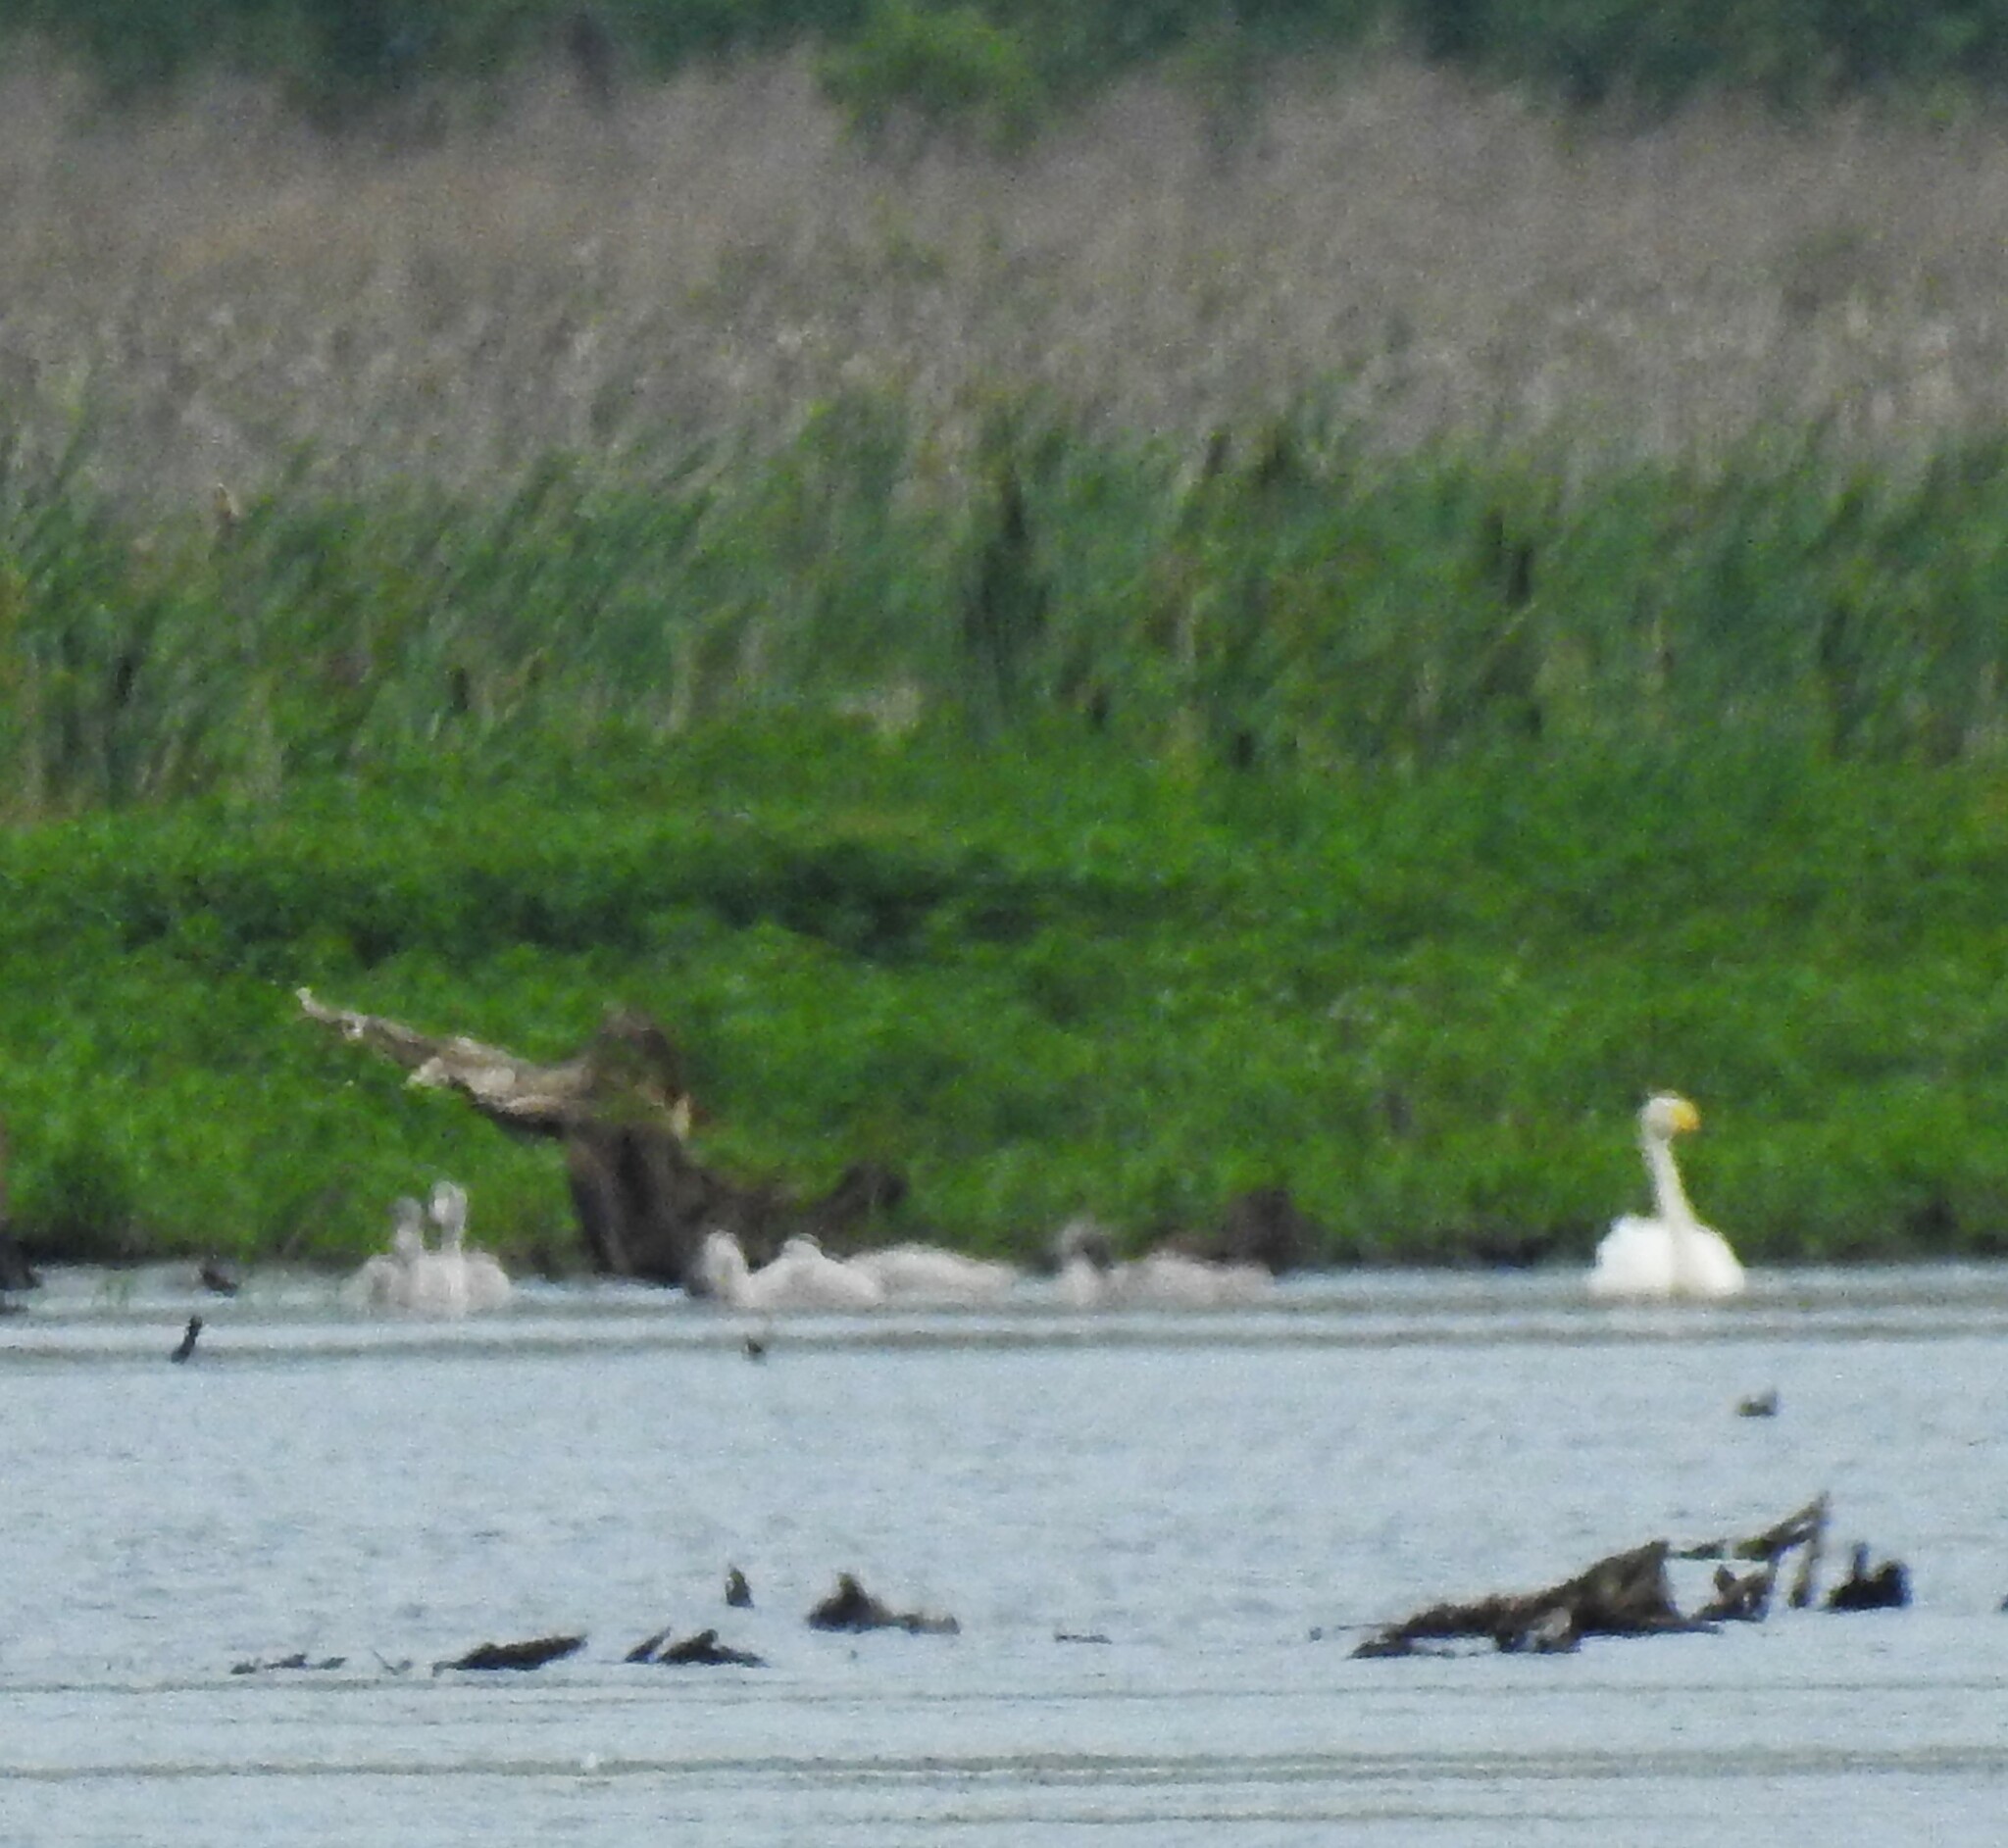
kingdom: Animalia
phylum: Chordata
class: Aves
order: Anseriformes
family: Anatidae
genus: Cygnus
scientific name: Cygnus cygnus
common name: Whooper swan
